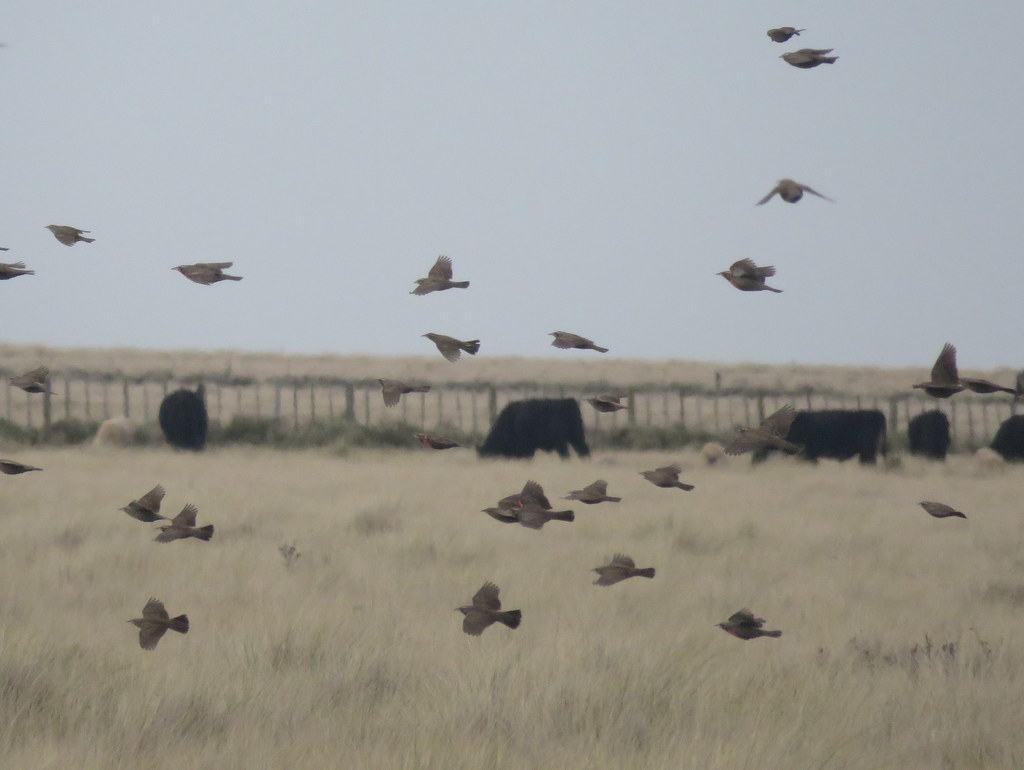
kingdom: Animalia
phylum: Chordata
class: Aves
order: Passeriformes
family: Icteridae
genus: Sturnella
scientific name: Sturnella loyca
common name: Long-tailed meadowlark
